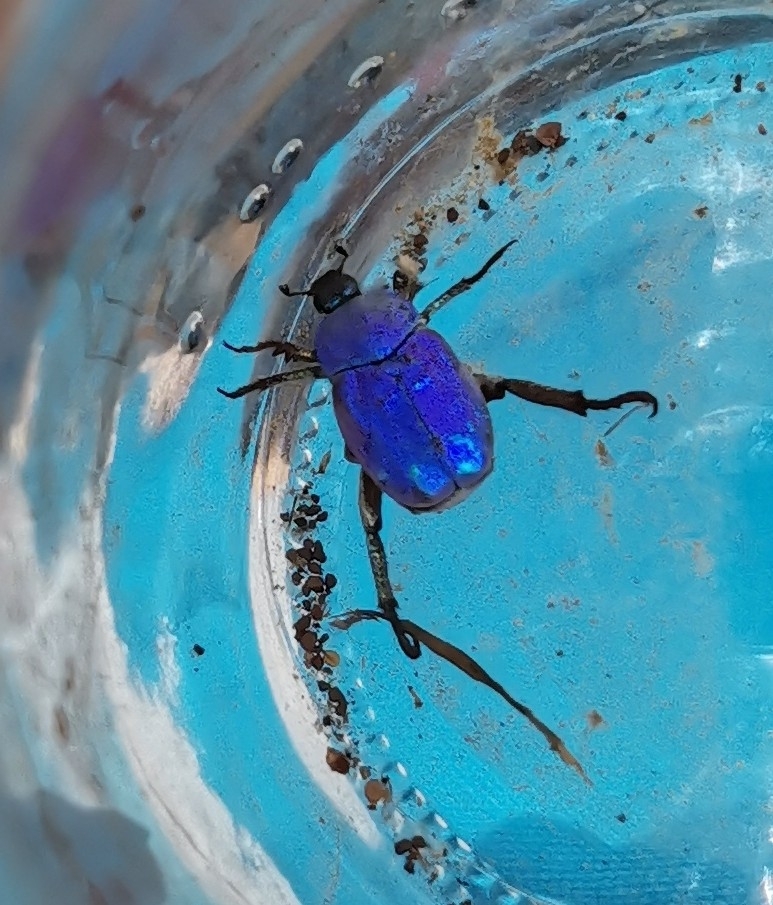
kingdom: Animalia
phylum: Arthropoda
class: Insecta
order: Coleoptera
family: Scarabaeidae
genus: Hoplia
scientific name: Hoplia coerulea
